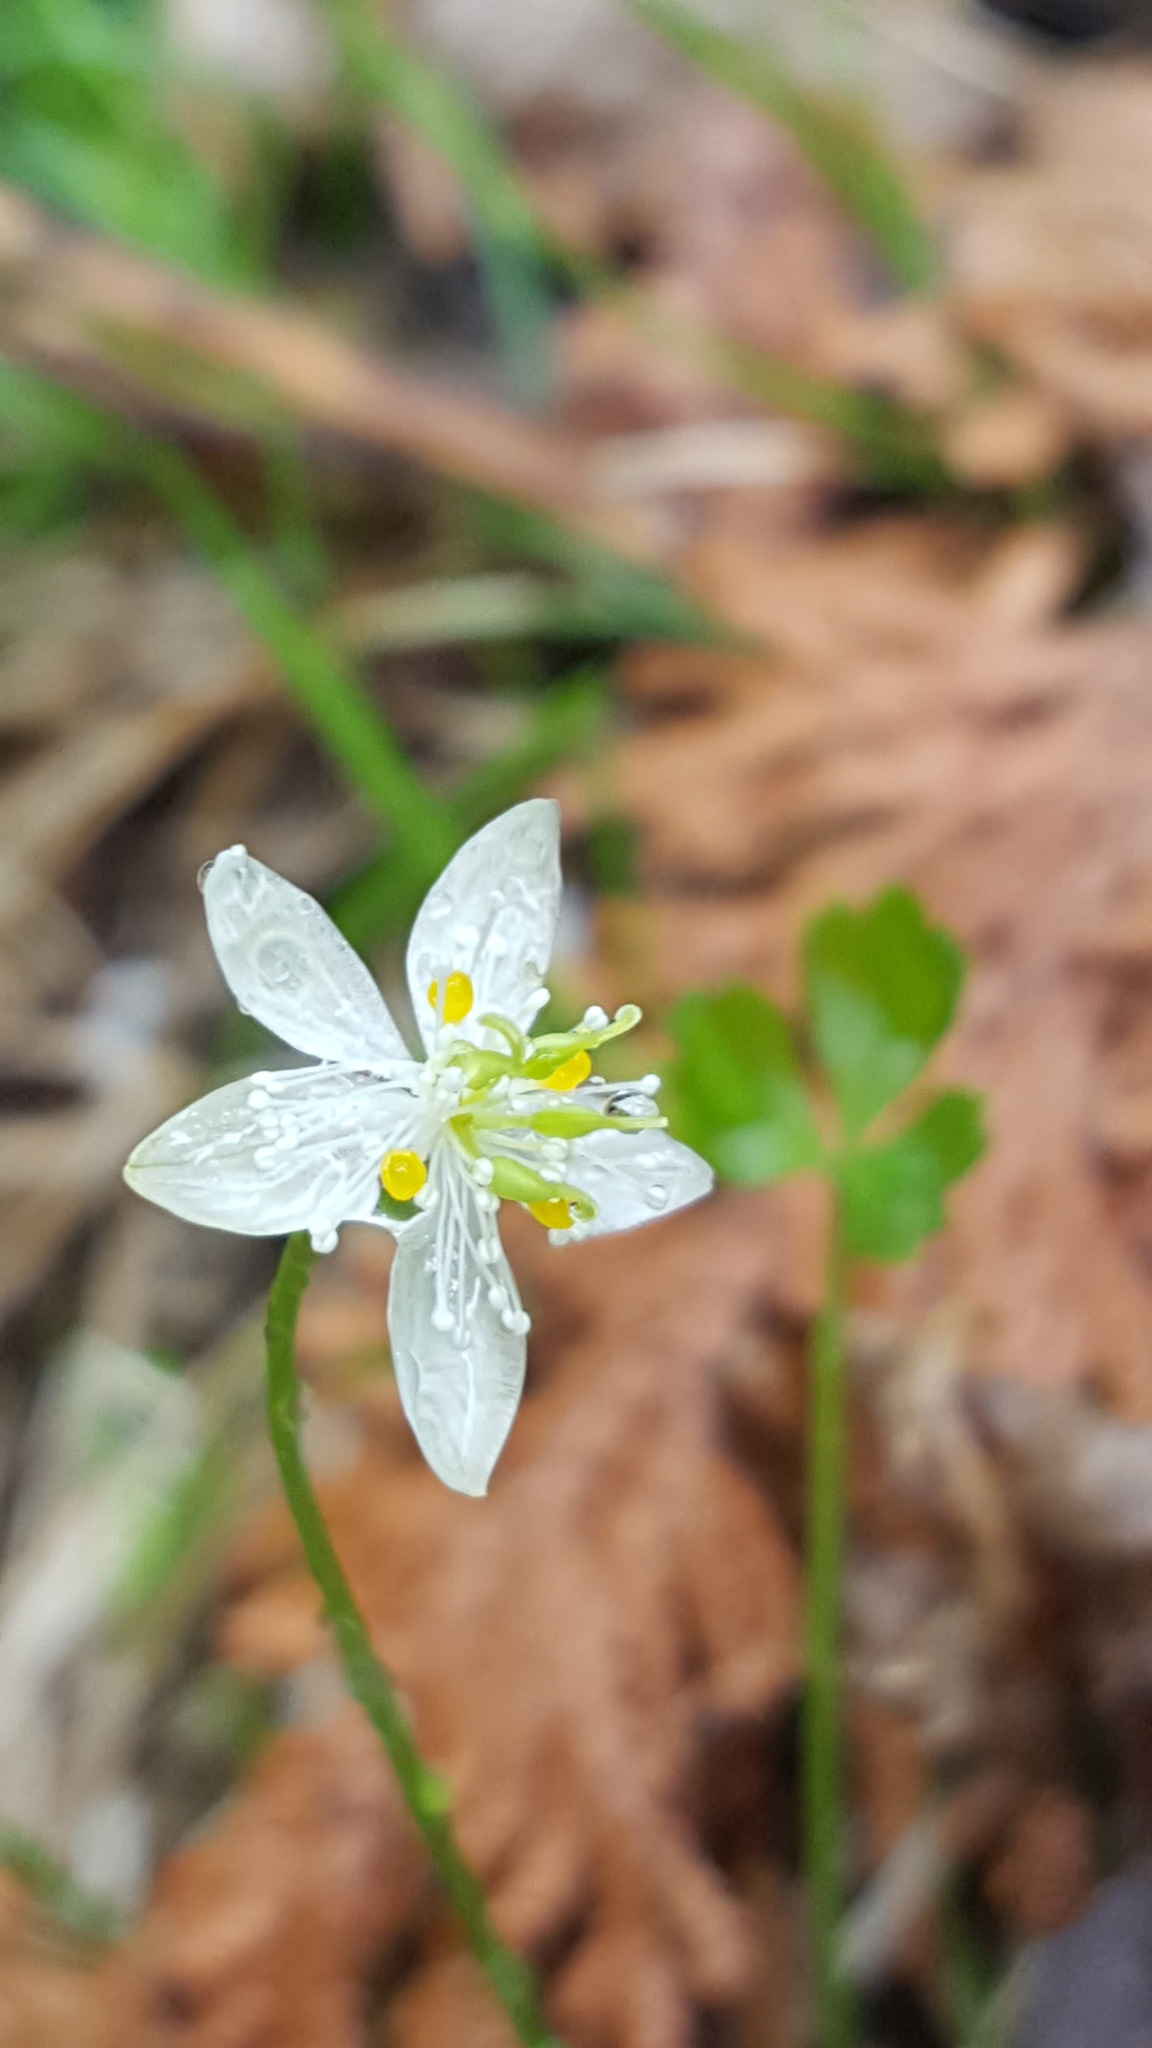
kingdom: Plantae
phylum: Tracheophyta
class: Magnoliopsida
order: Ranunculales
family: Ranunculaceae
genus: Coptis
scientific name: Coptis trifolia
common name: Canker-root
